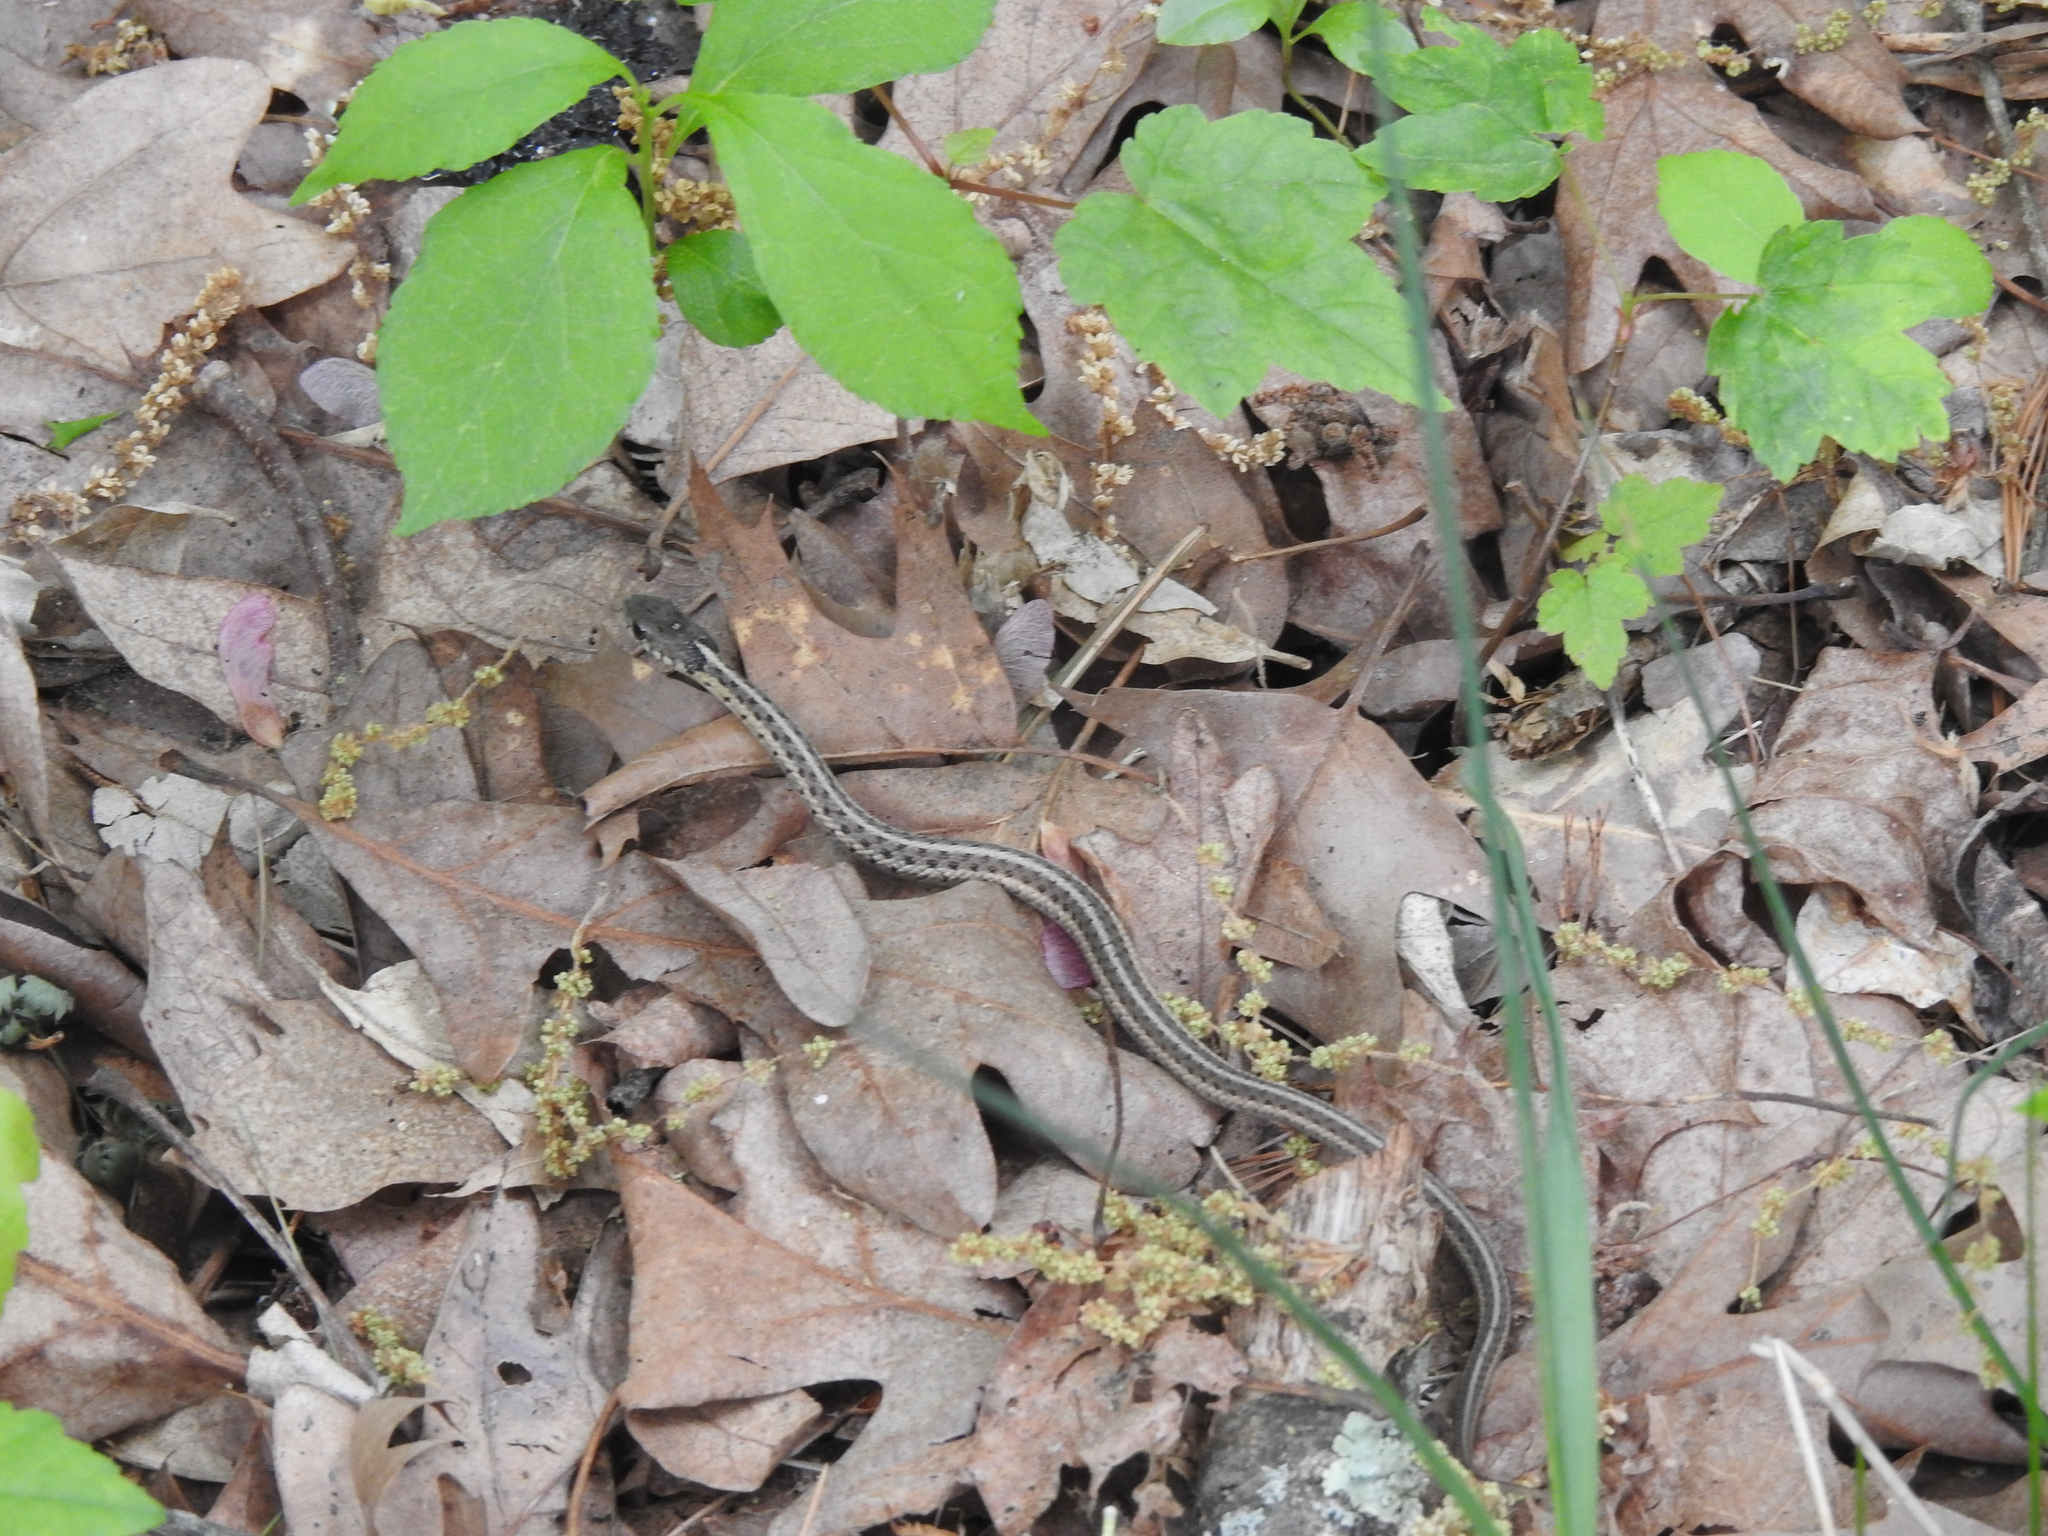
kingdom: Animalia
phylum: Chordata
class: Squamata
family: Colubridae
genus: Thamnophis
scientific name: Thamnophis sirtalis
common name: Common garter snake
